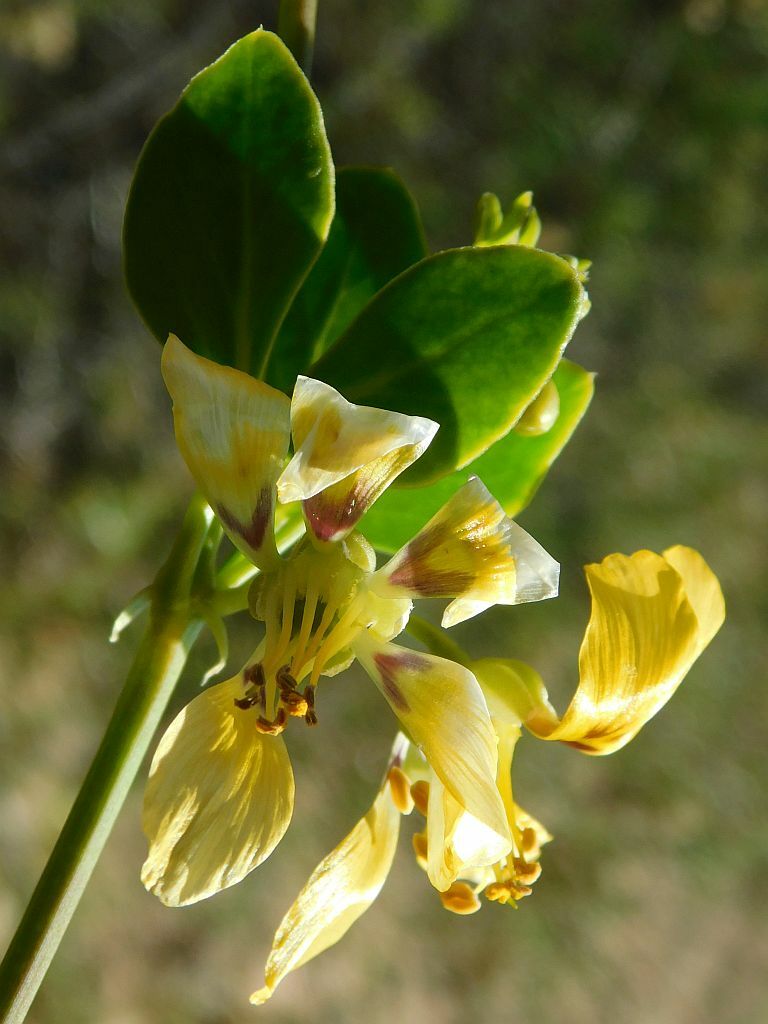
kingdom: Plantae
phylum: Tracheophyta
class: Magnoliopsida
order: Zygophyllales
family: Zygophyllaceae
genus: Roepera
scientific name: Roepera foetida
